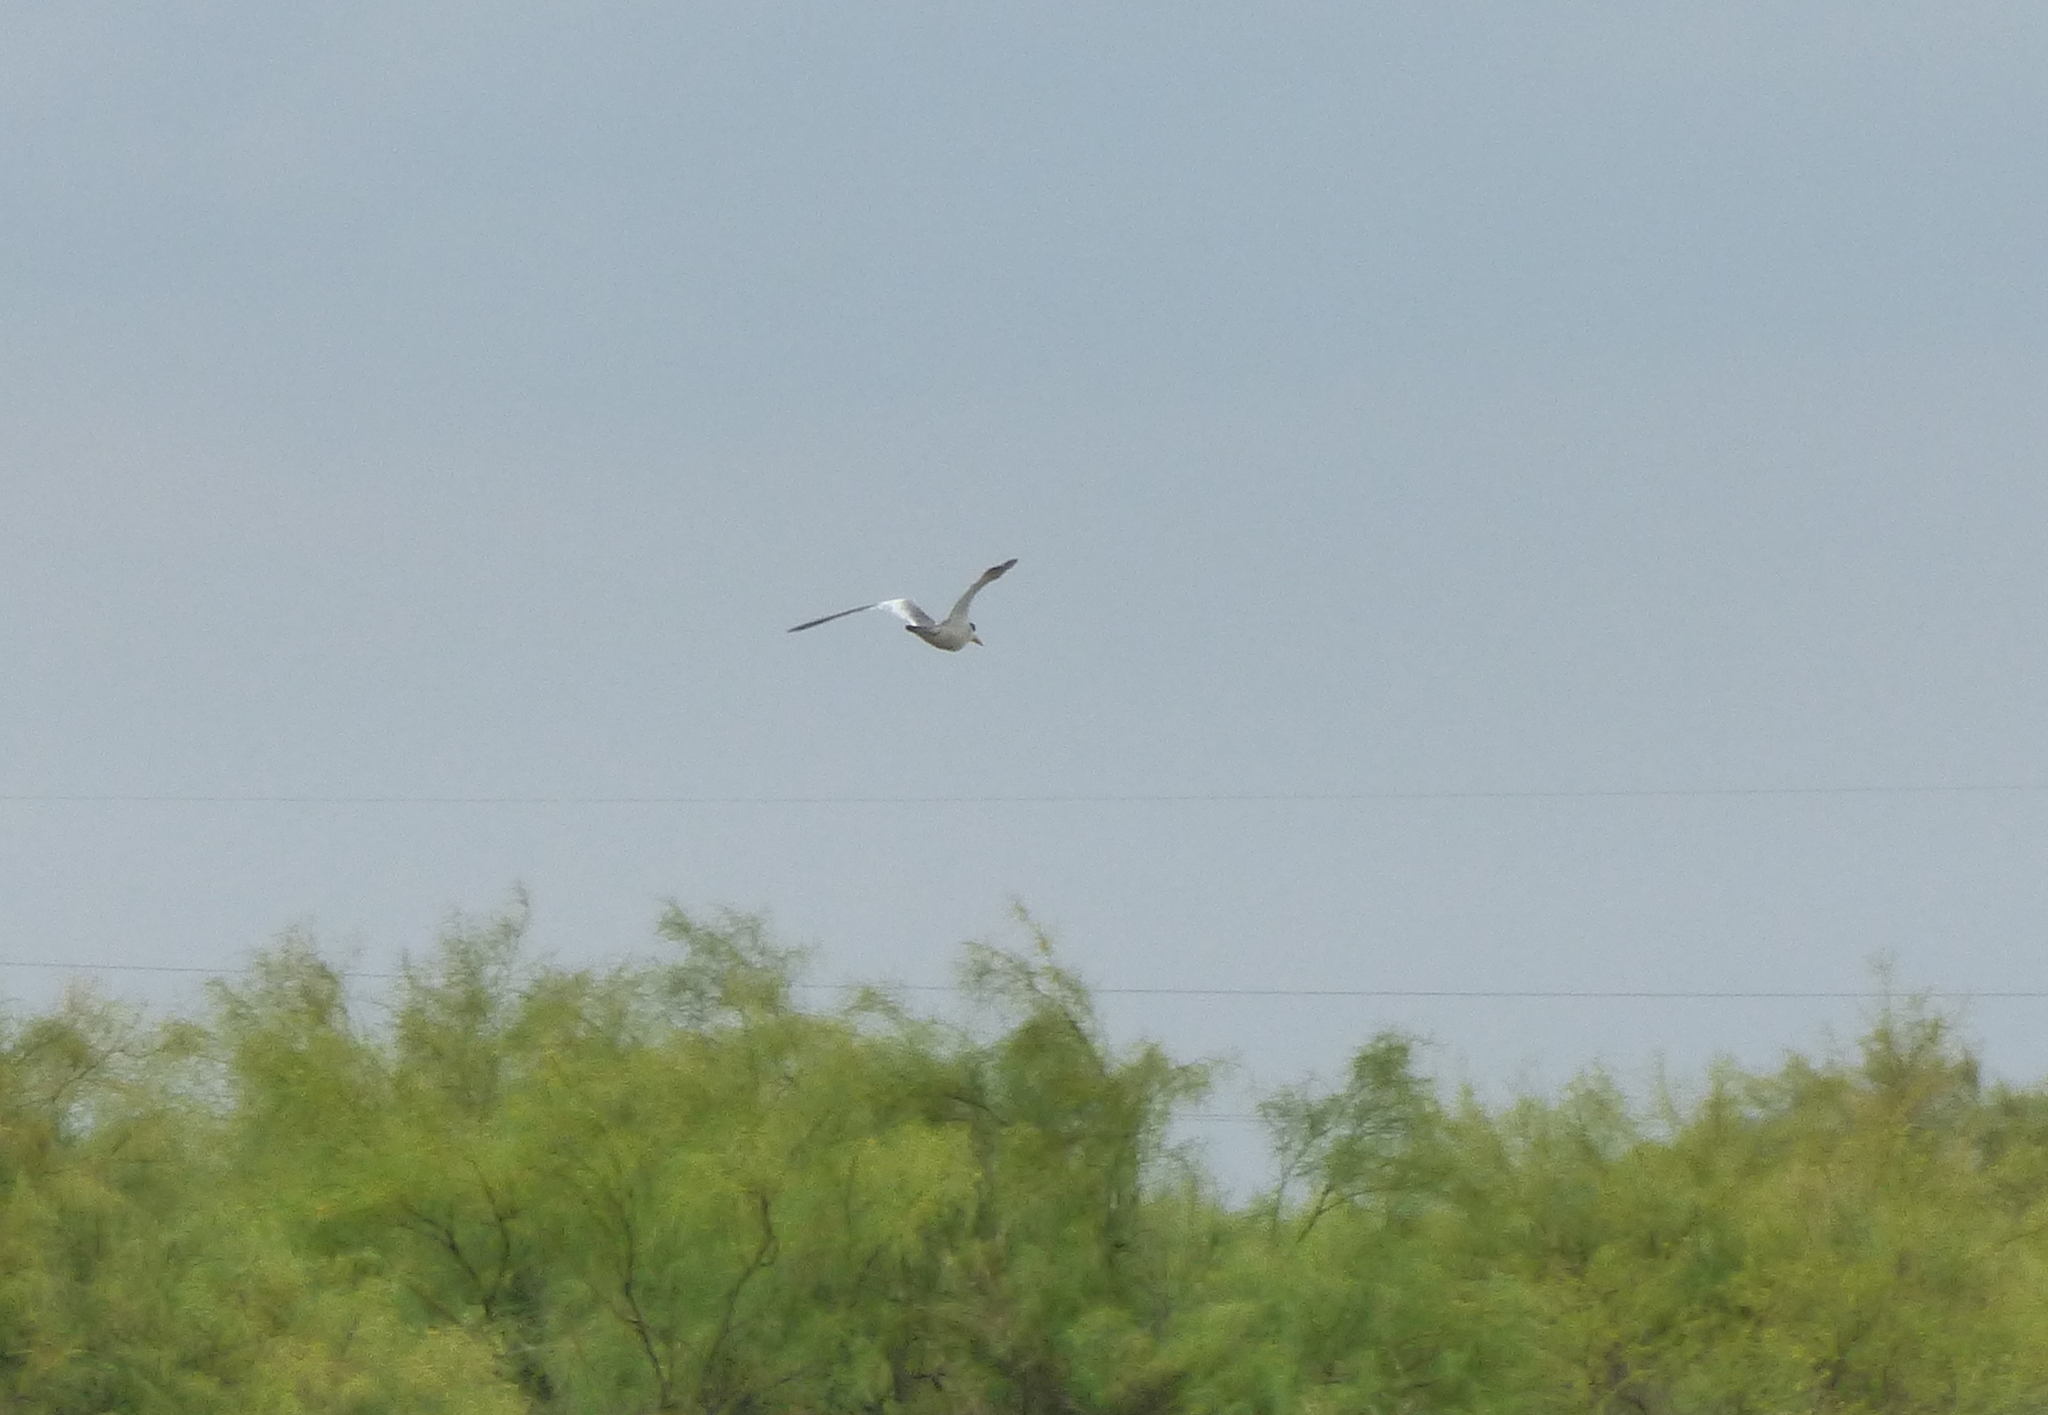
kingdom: Animalia
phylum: Chordata
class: Aves
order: Charadriiformes
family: Laridae
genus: Phaetusa
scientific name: Phaetusa simplex
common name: Large-billed tern
